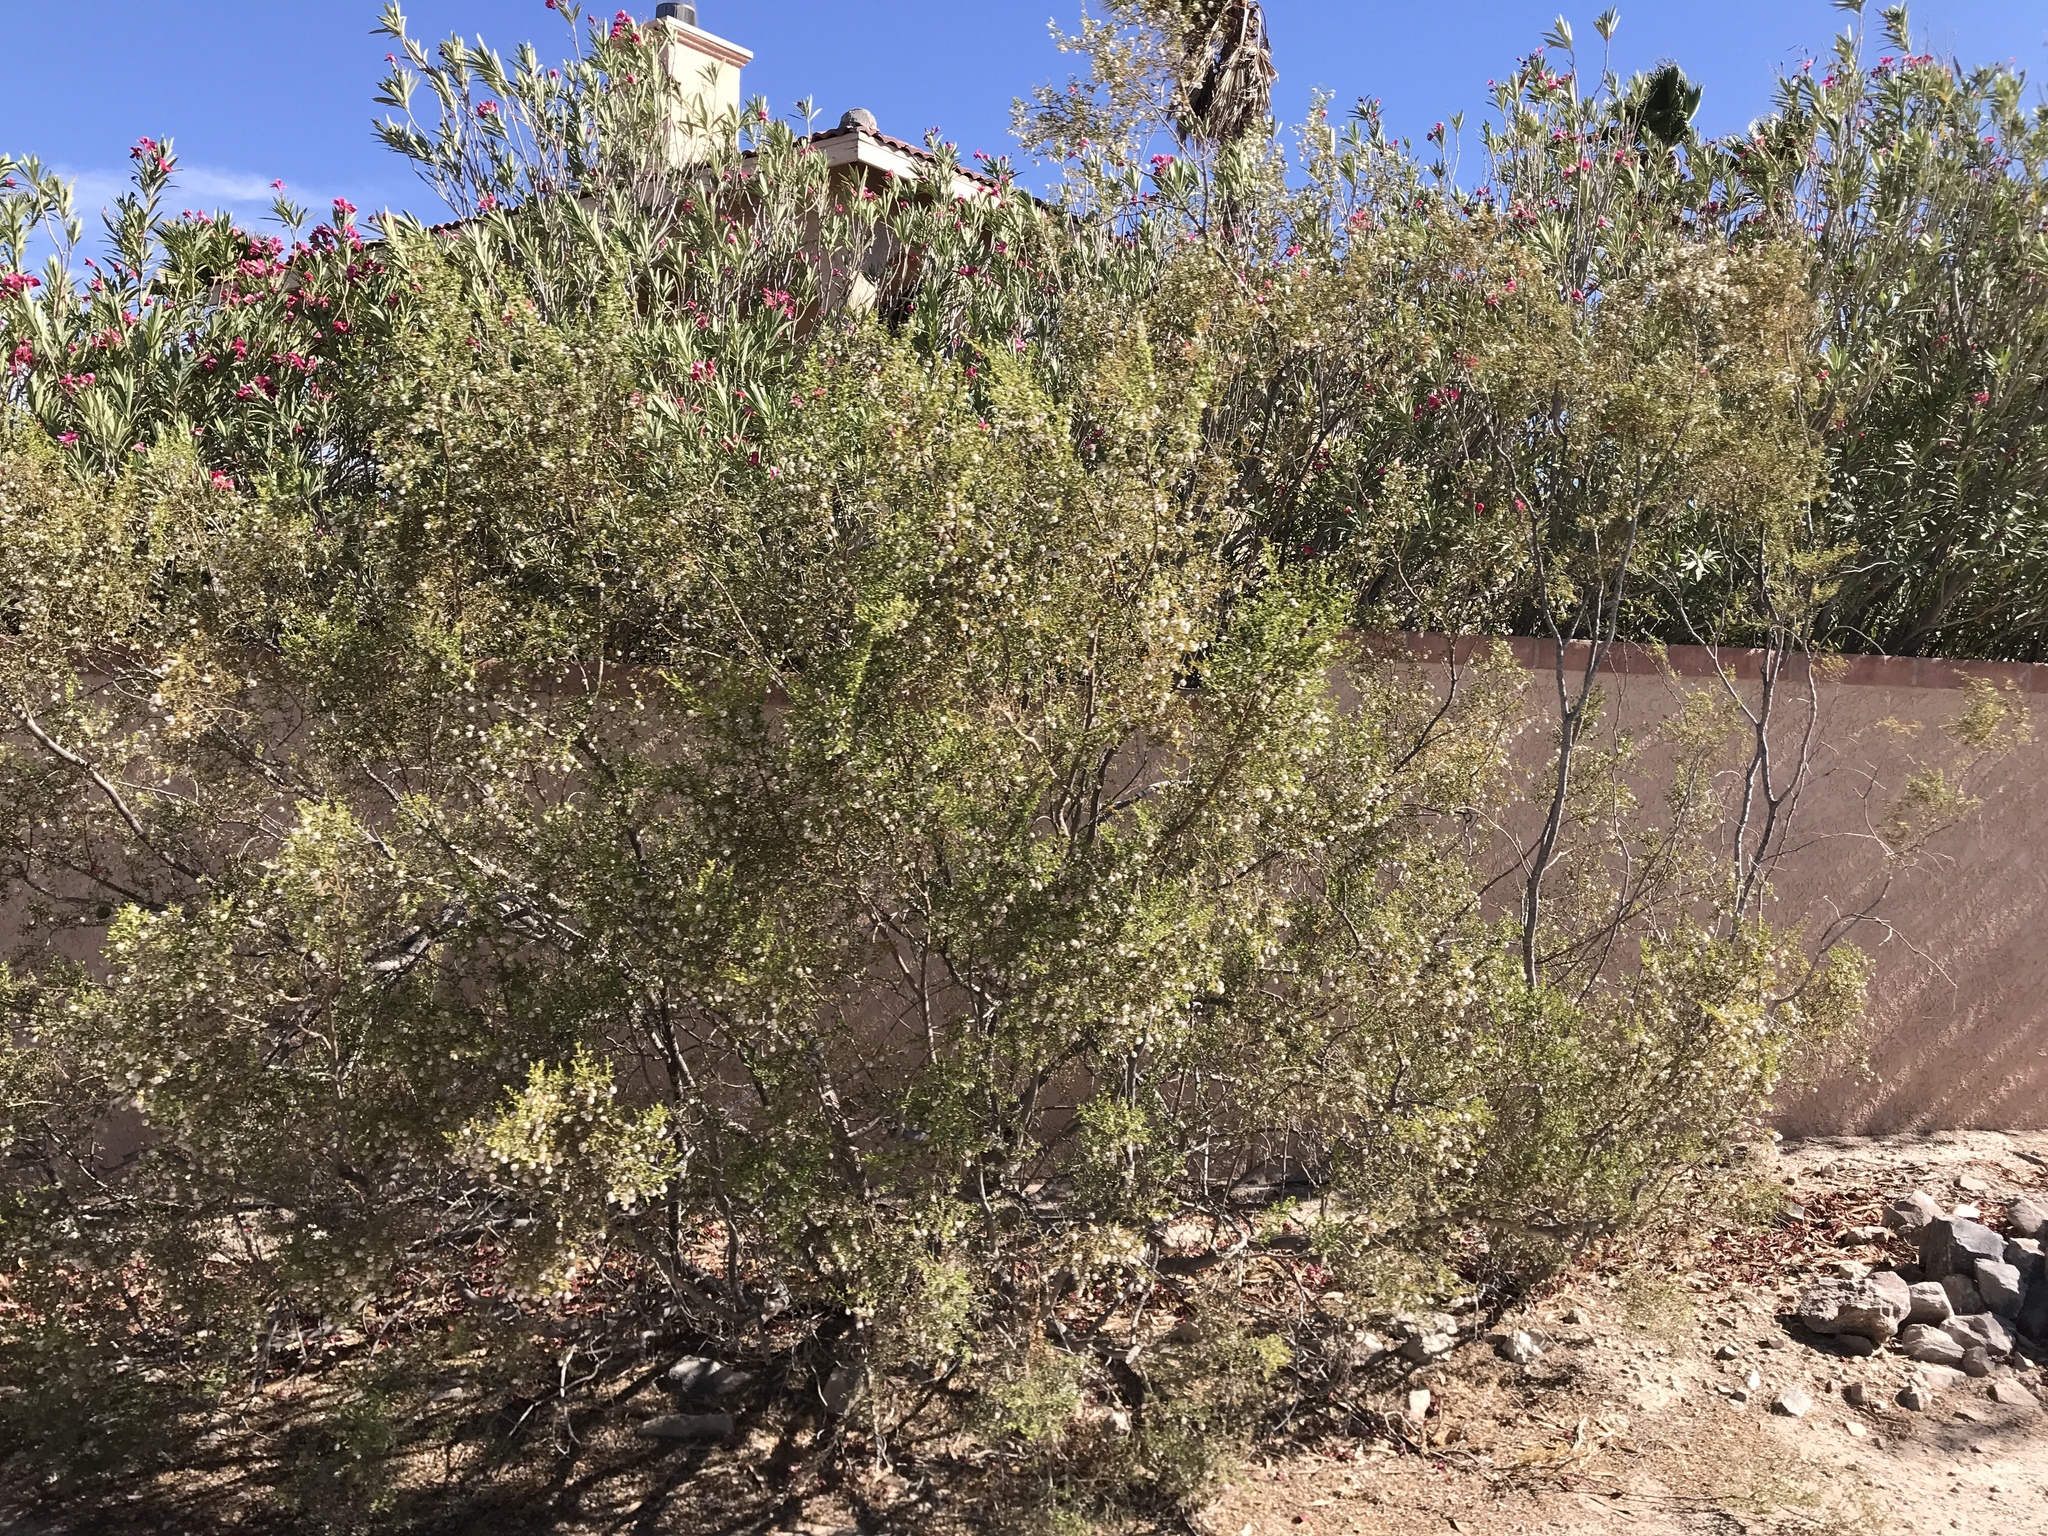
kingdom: Plantae
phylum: Tracheophyta
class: Magnoliopsida
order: Zygophyllales
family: Zygophyllaceae
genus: Larrea
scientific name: Larrea tridentata
